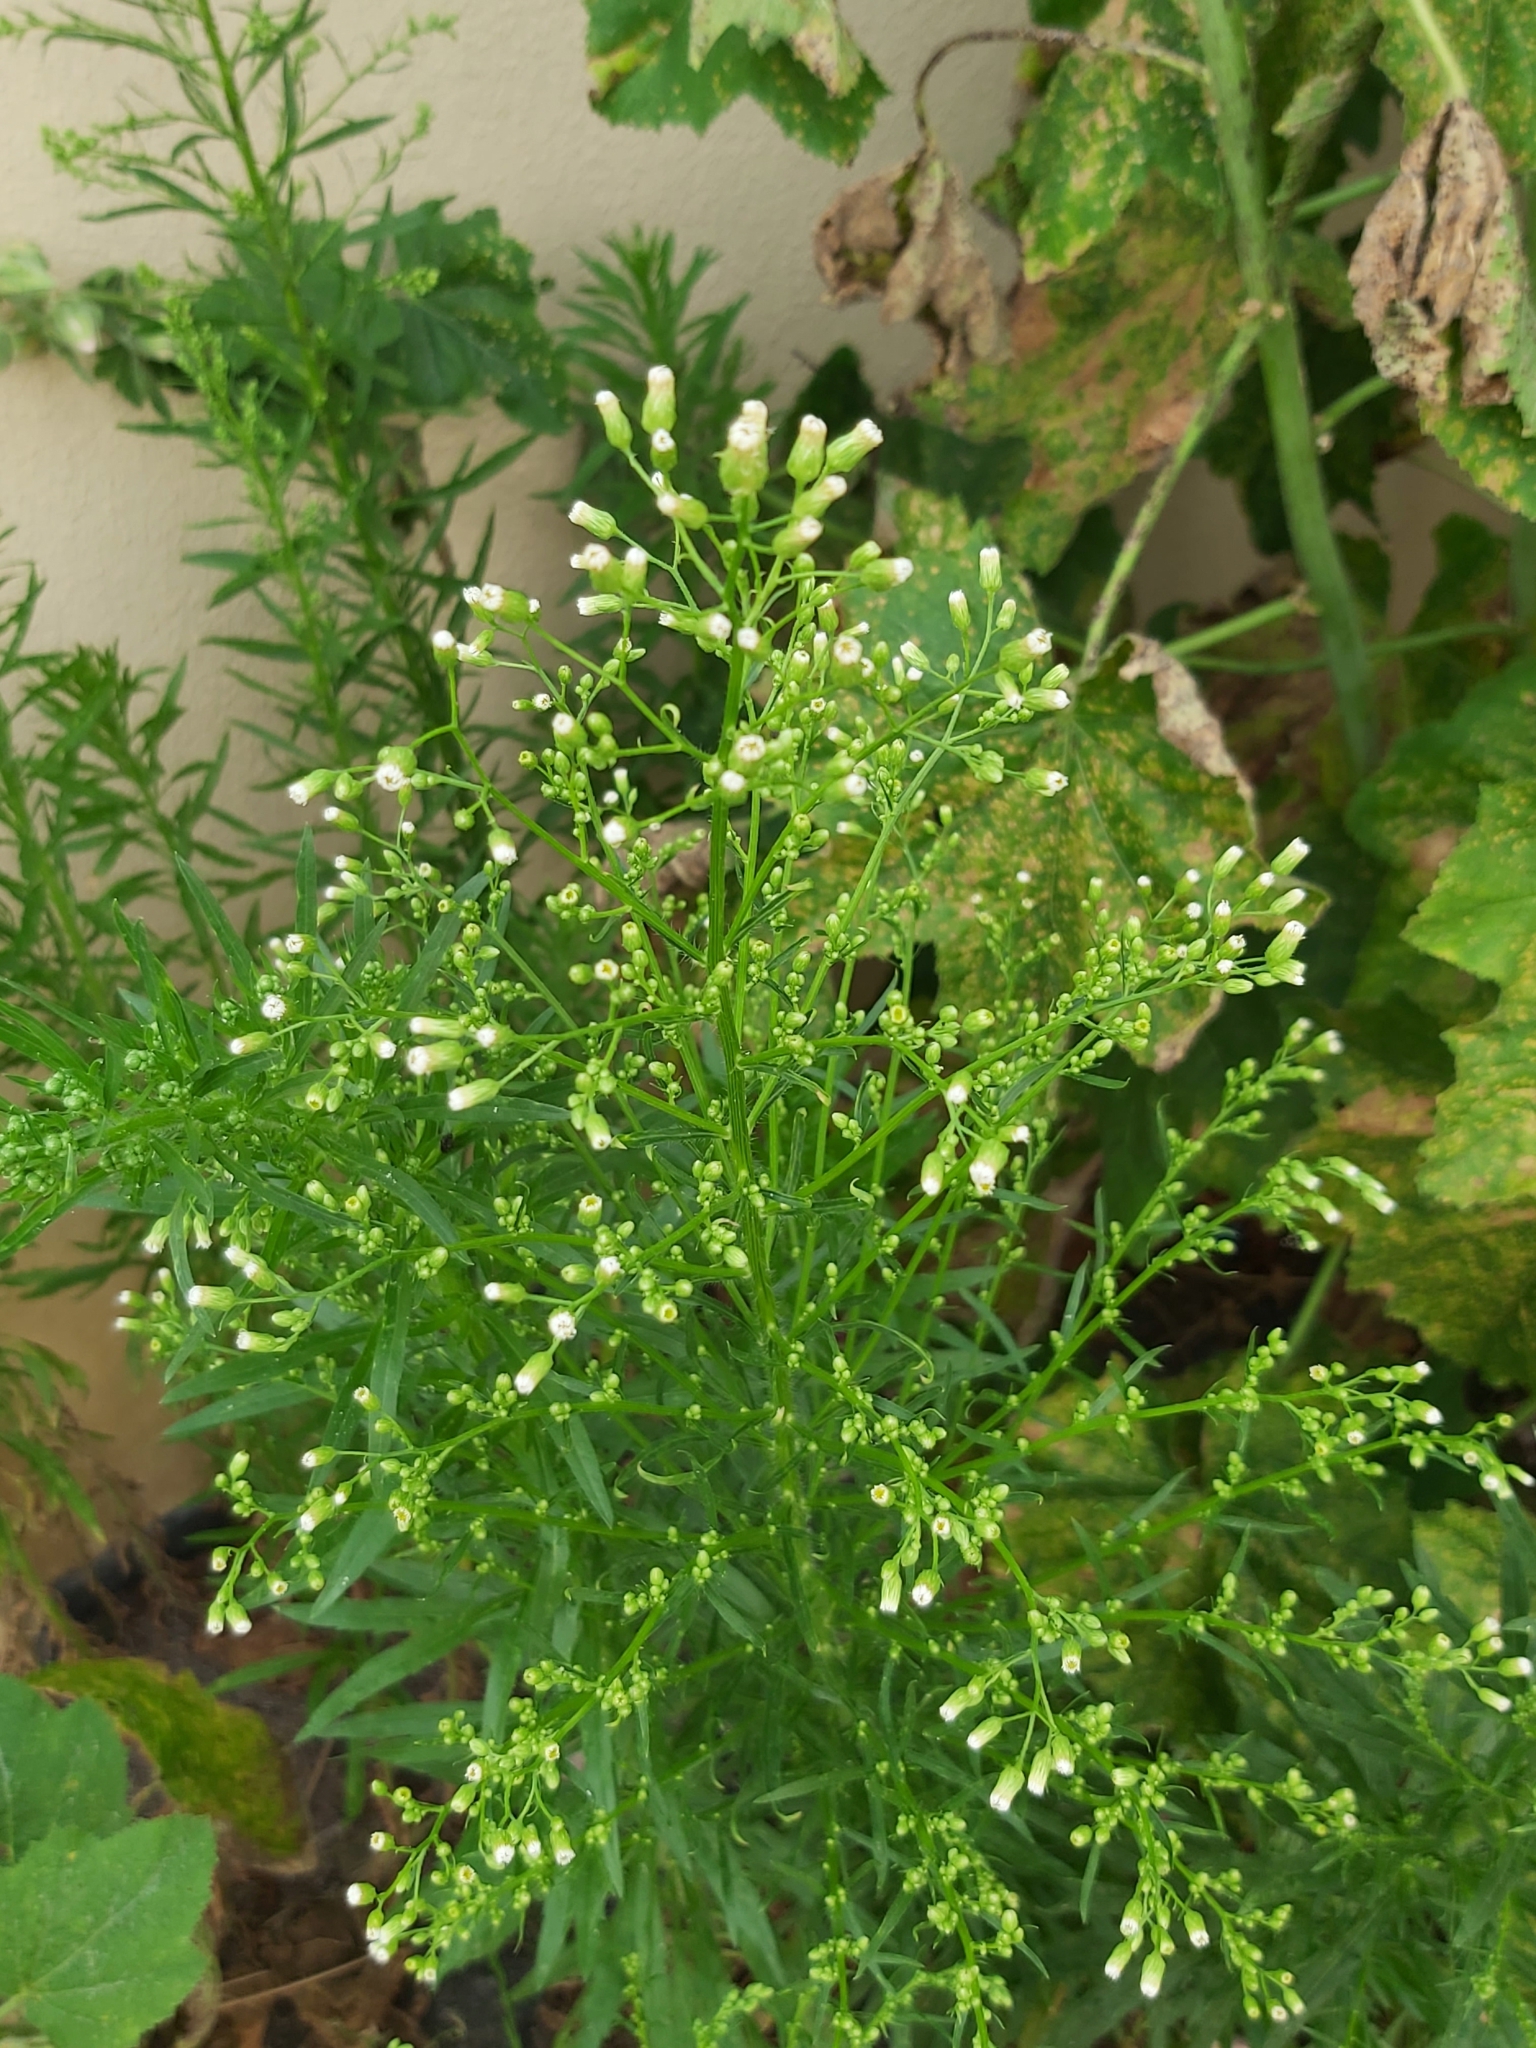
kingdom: Plantae
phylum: Tracheophyta
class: Magnoliopsida
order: Asterales
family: Asteraceae
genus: Erigeron
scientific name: Erigeron canadensis
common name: Canadian fleabane
